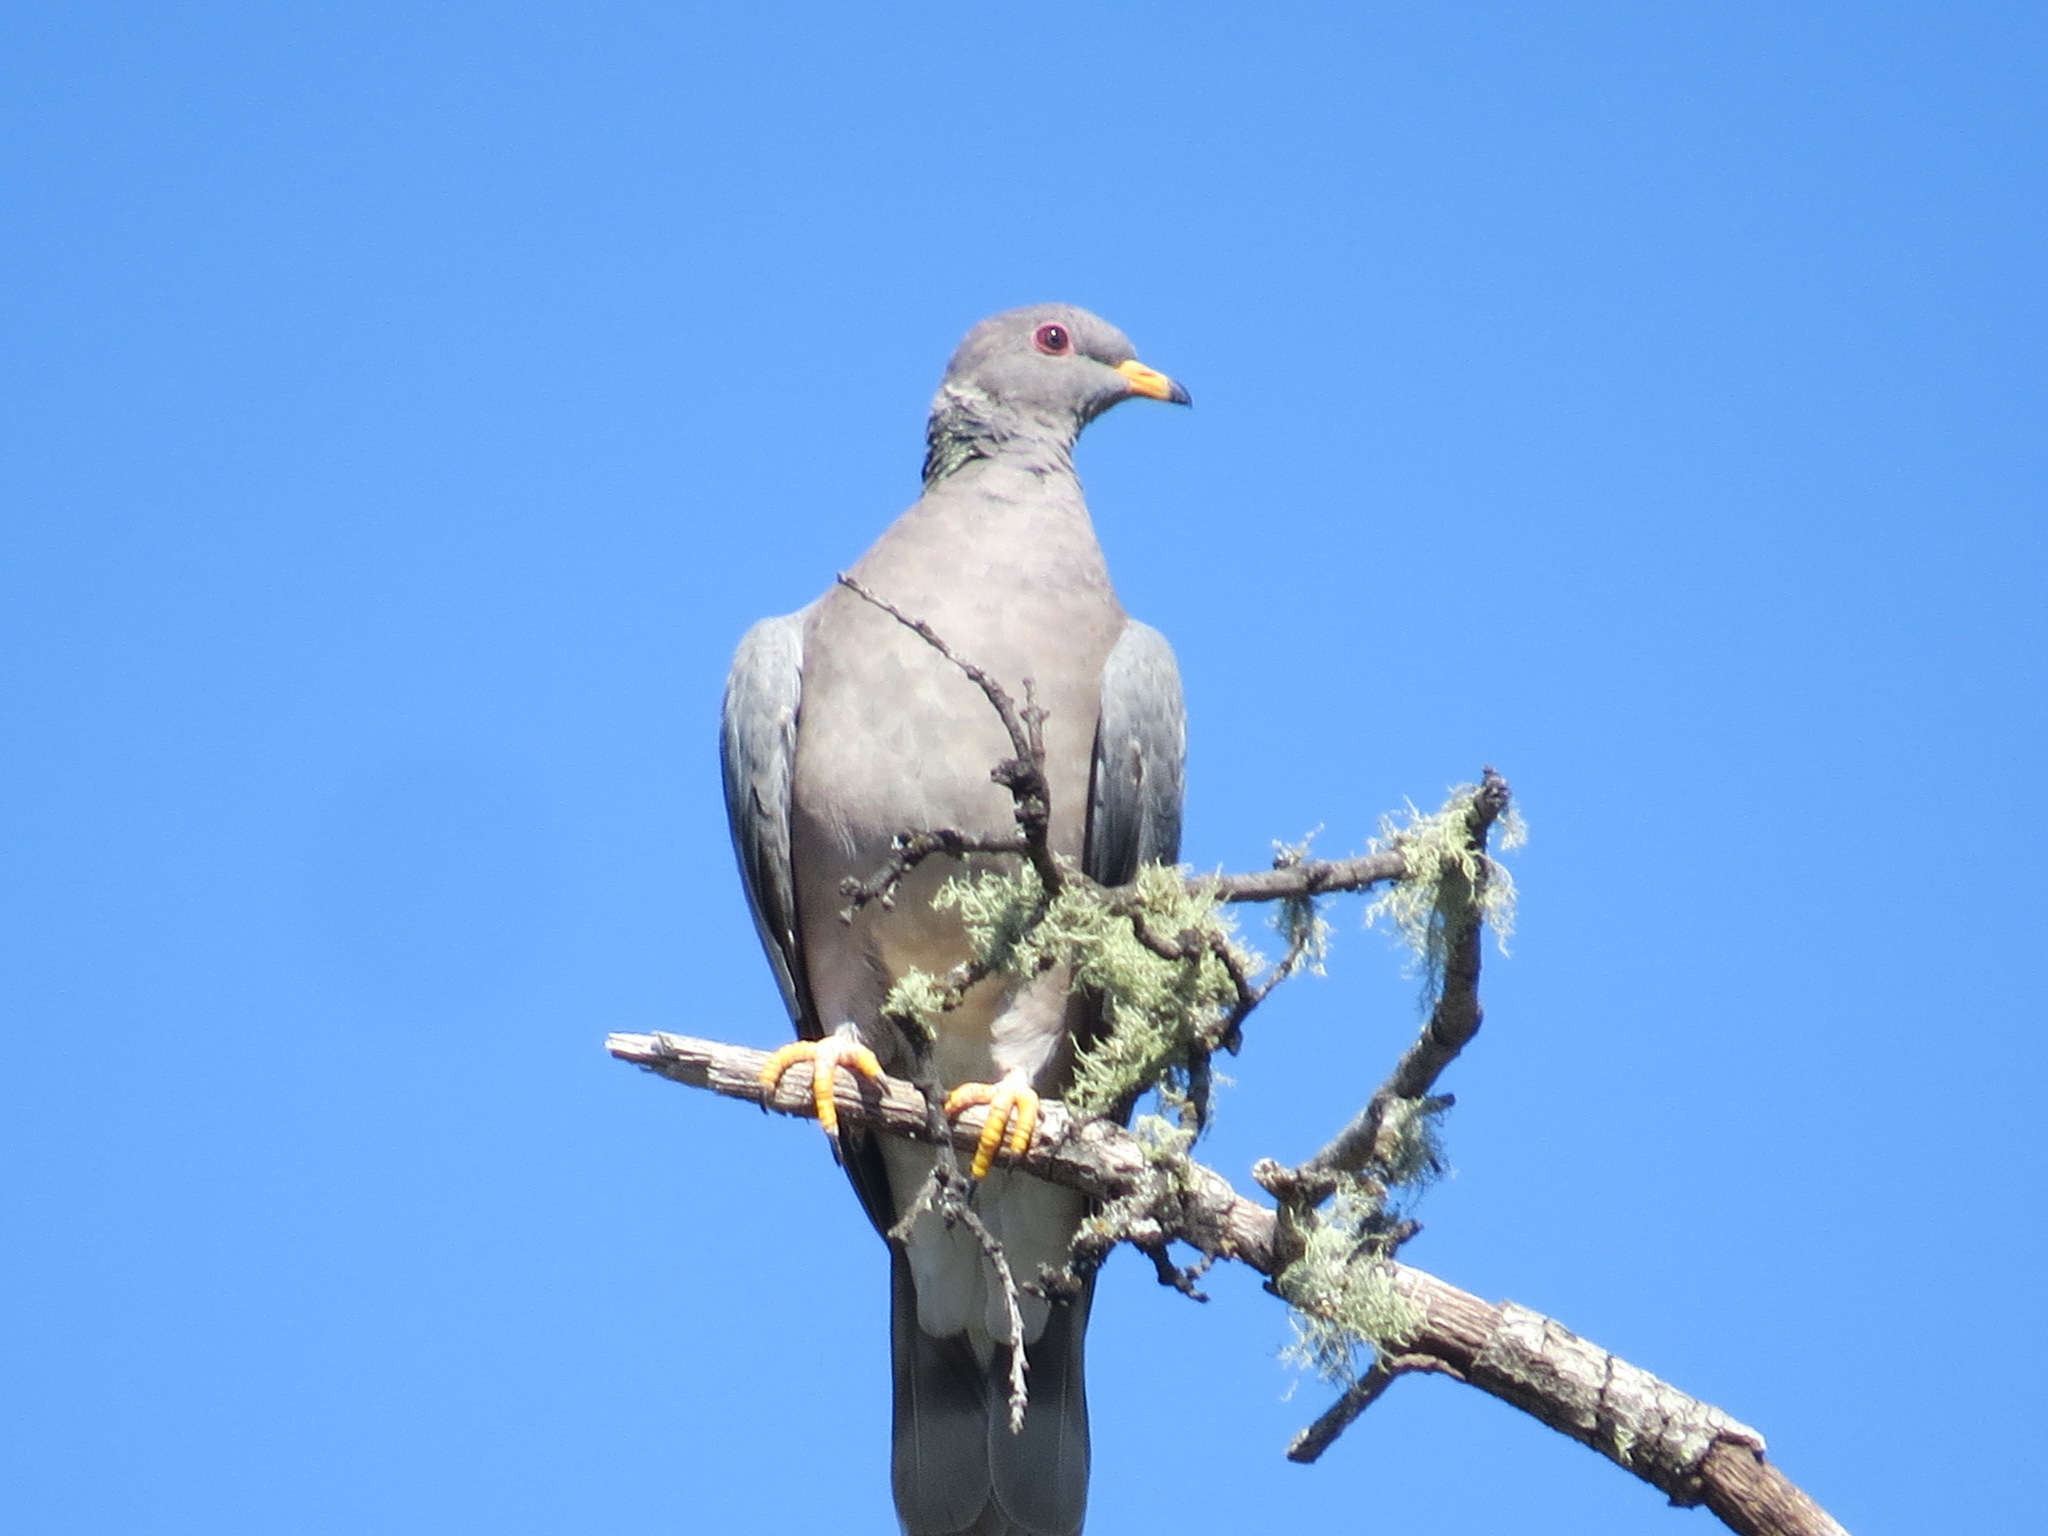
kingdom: Animalia
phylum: Chordata
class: Aves
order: Columbiformes
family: Columbidae
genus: Patagioenas
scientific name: Patagioenas fasciata
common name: Band-tailed pigeon
